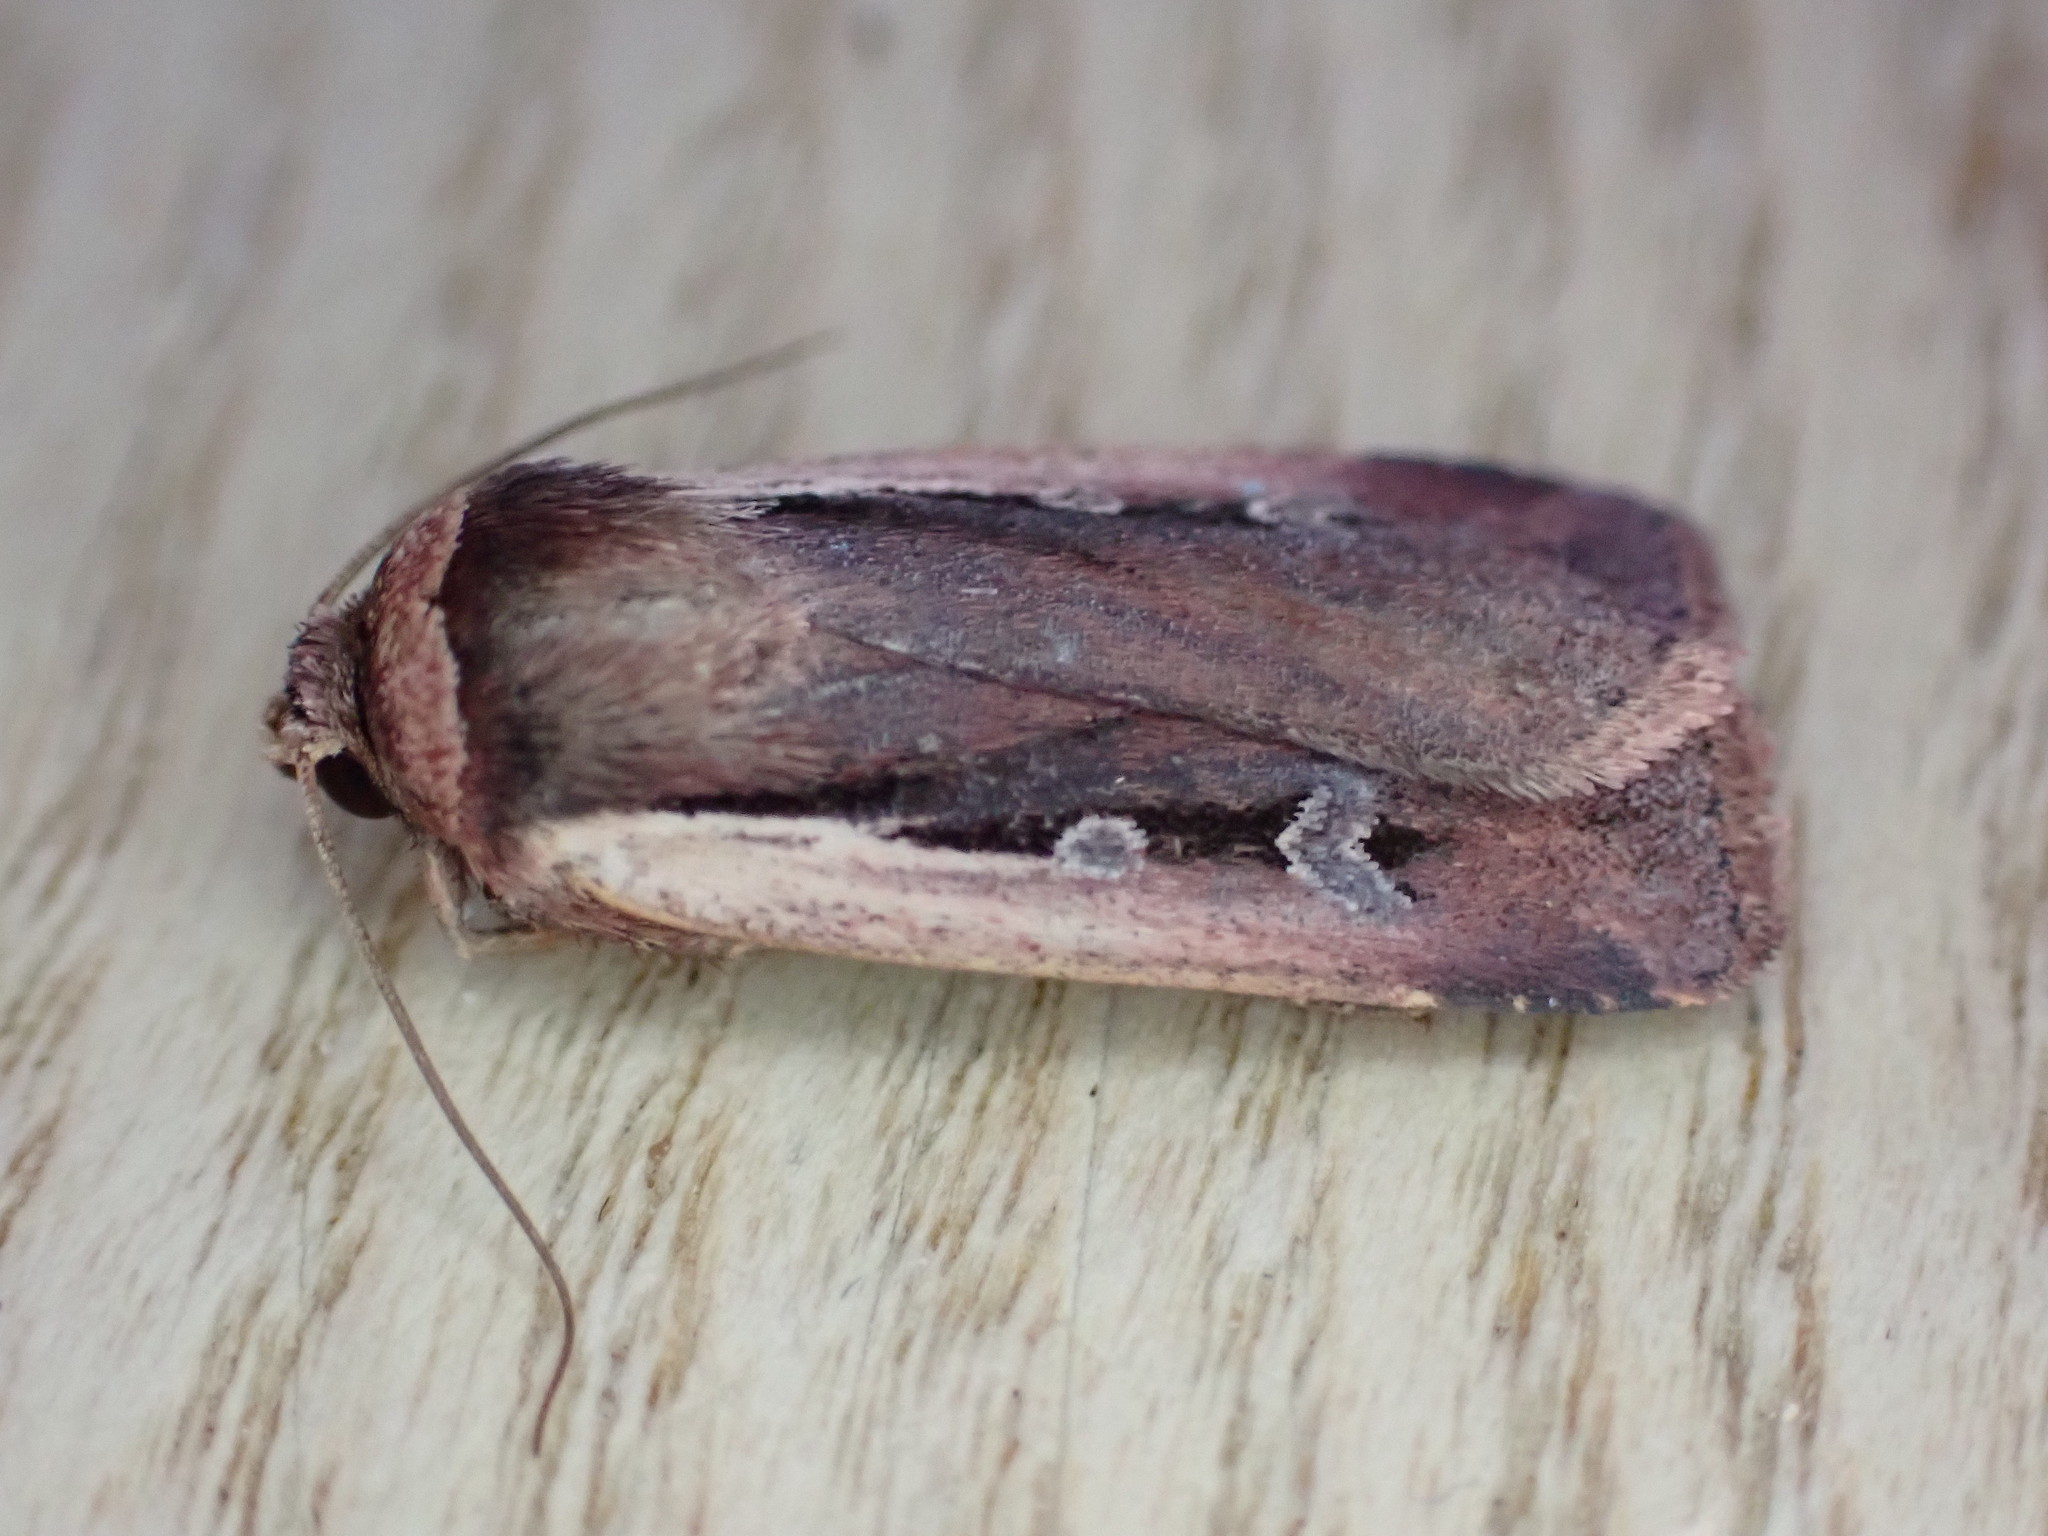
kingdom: Animalia
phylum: Arthropoda
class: Insecta
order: Lepidoptera
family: Noctuidae
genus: Ochropleura
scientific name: Ochropleura plecta
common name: Flame shoulder
